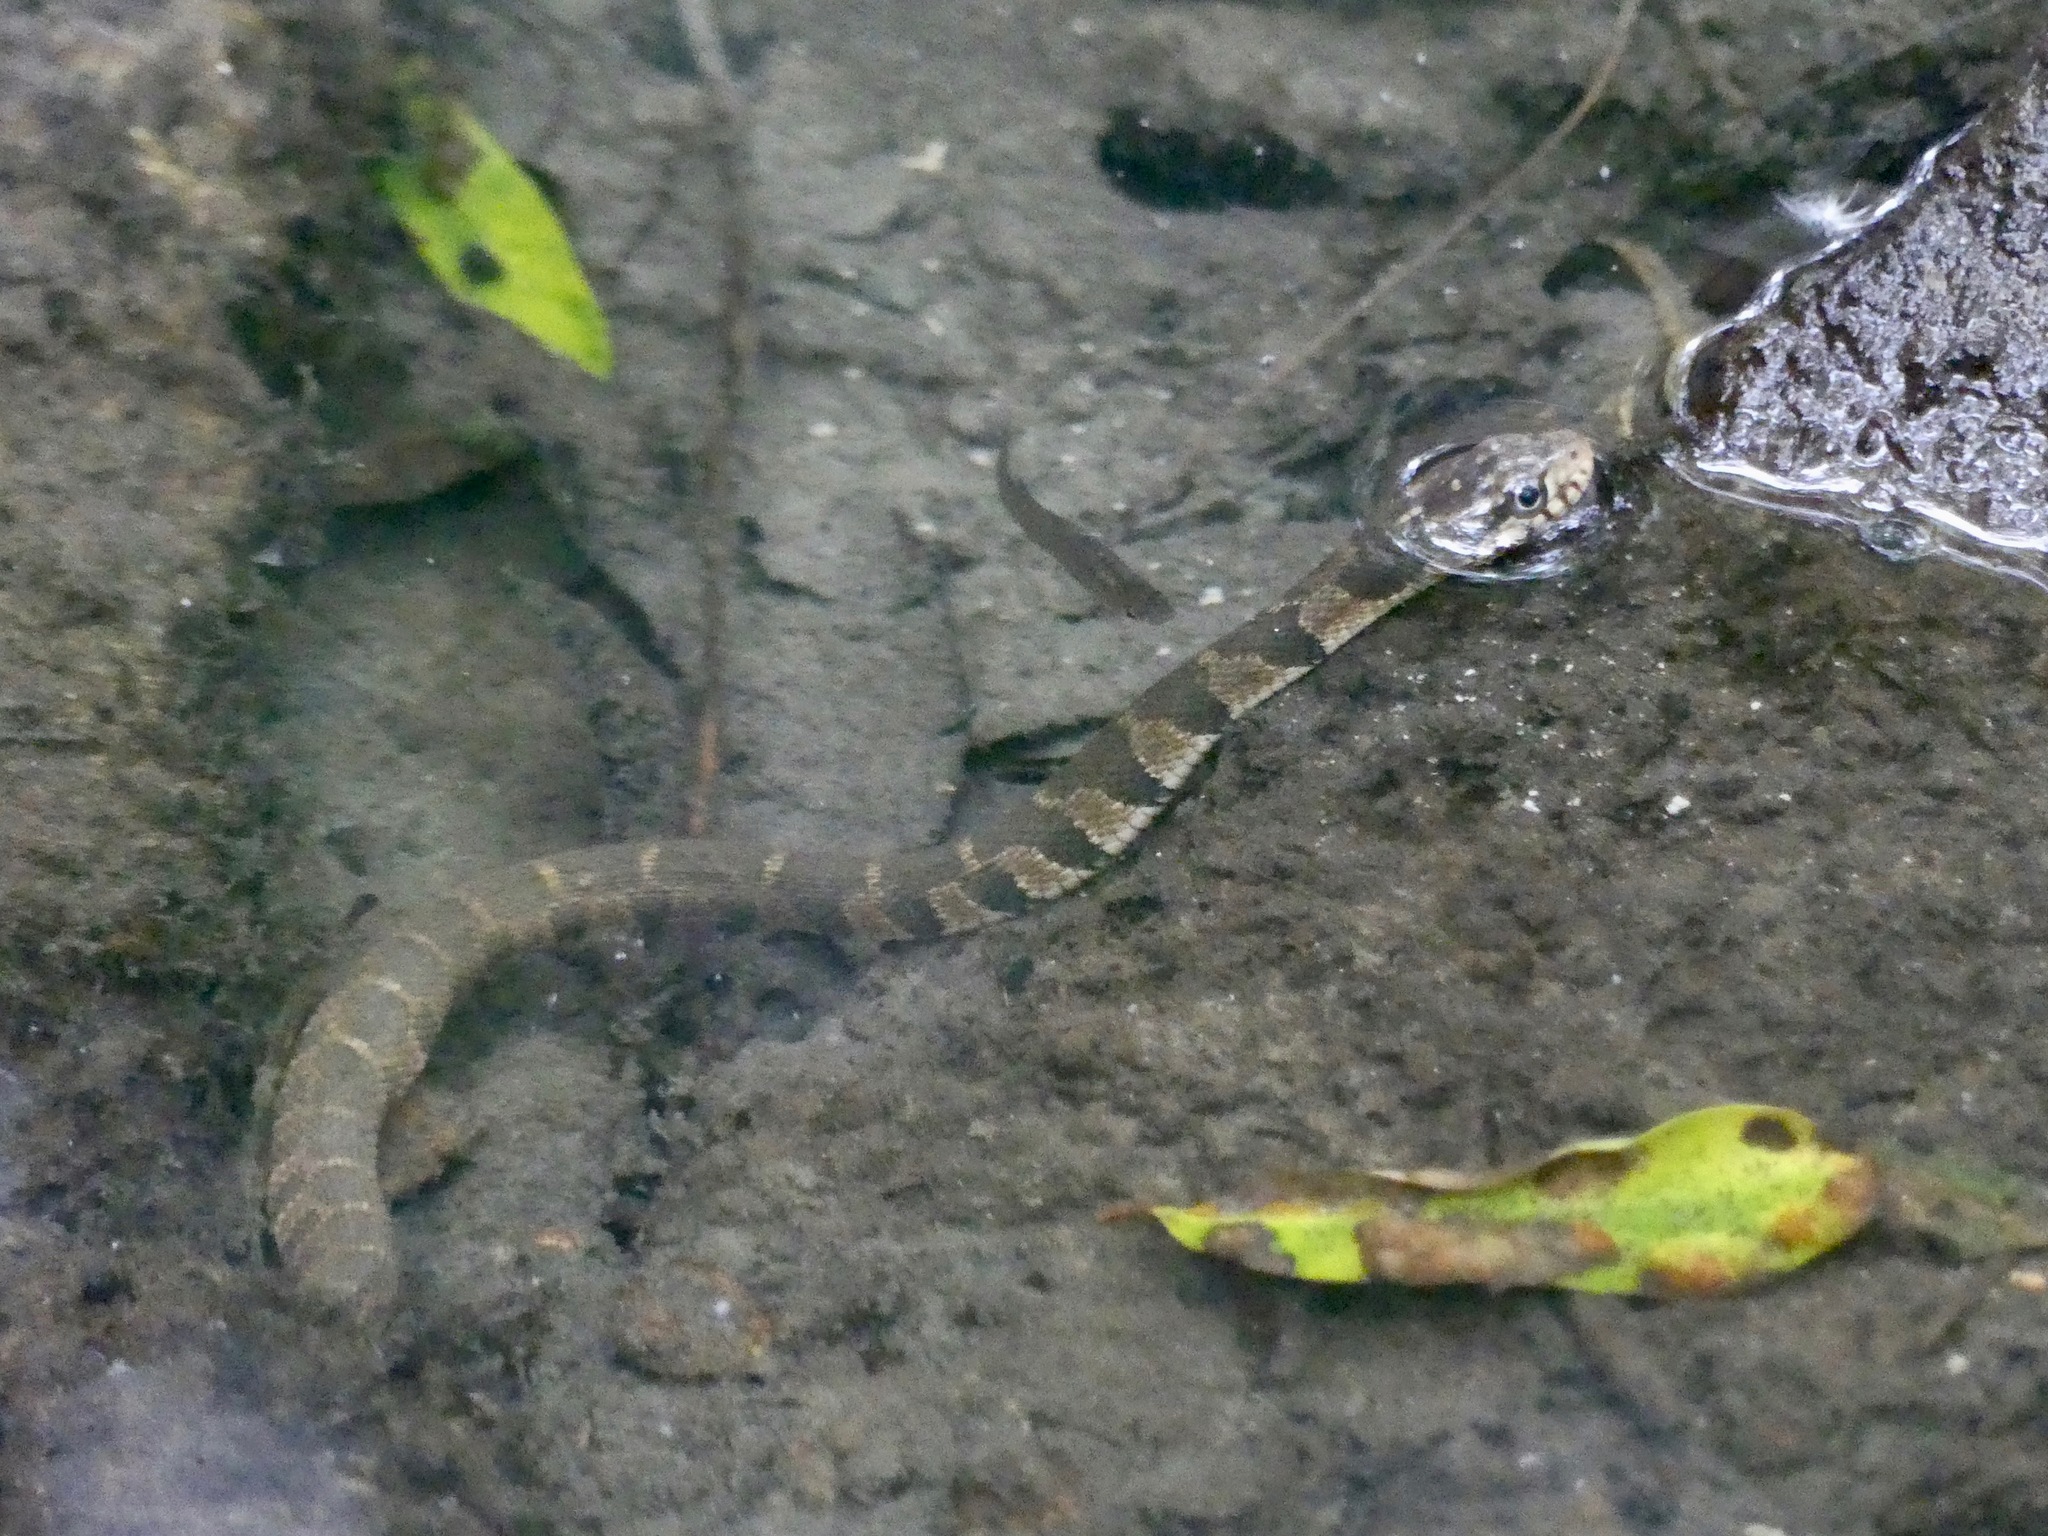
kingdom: Animalia
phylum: Chordata
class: Squamata
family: Colubridae
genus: Nerodia
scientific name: Nerodia erythrogaster
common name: Plainbelly water snake
